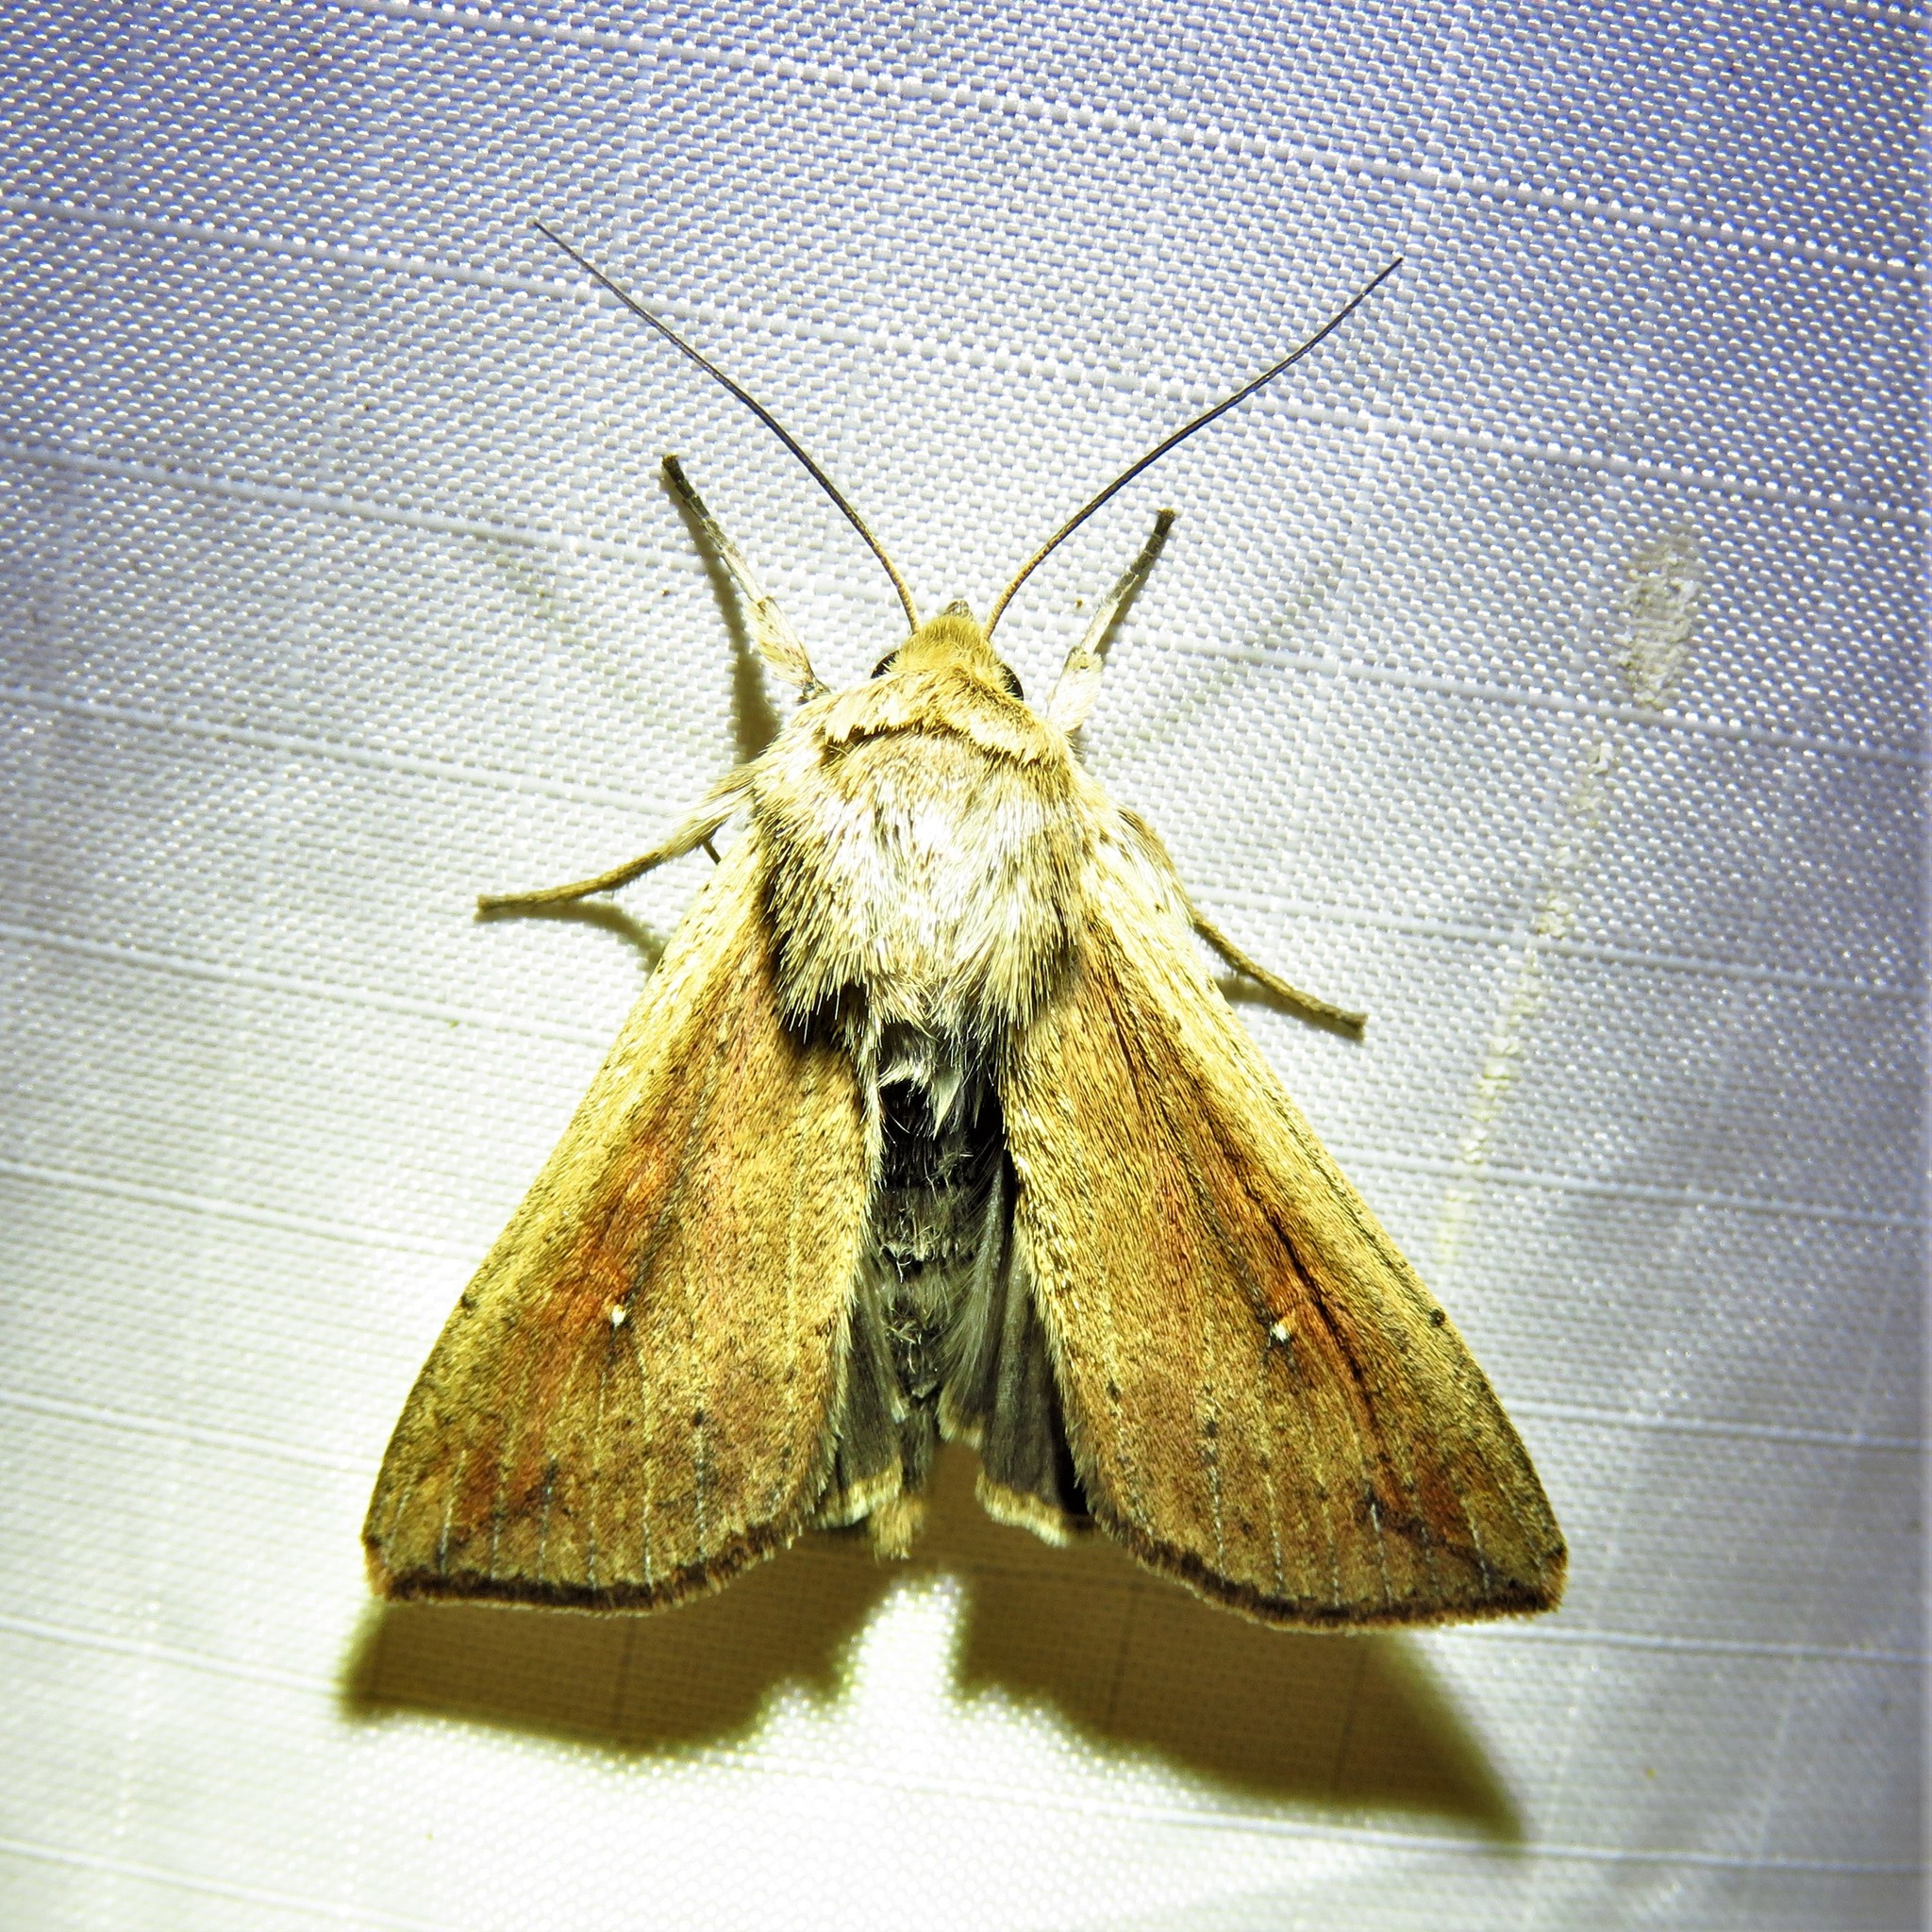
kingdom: Animalia
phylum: Arthropoda
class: Insecta
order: Lepidoptera
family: Noctuidae
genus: Mythimna
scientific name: Mythimna unipuncta
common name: White-speck
